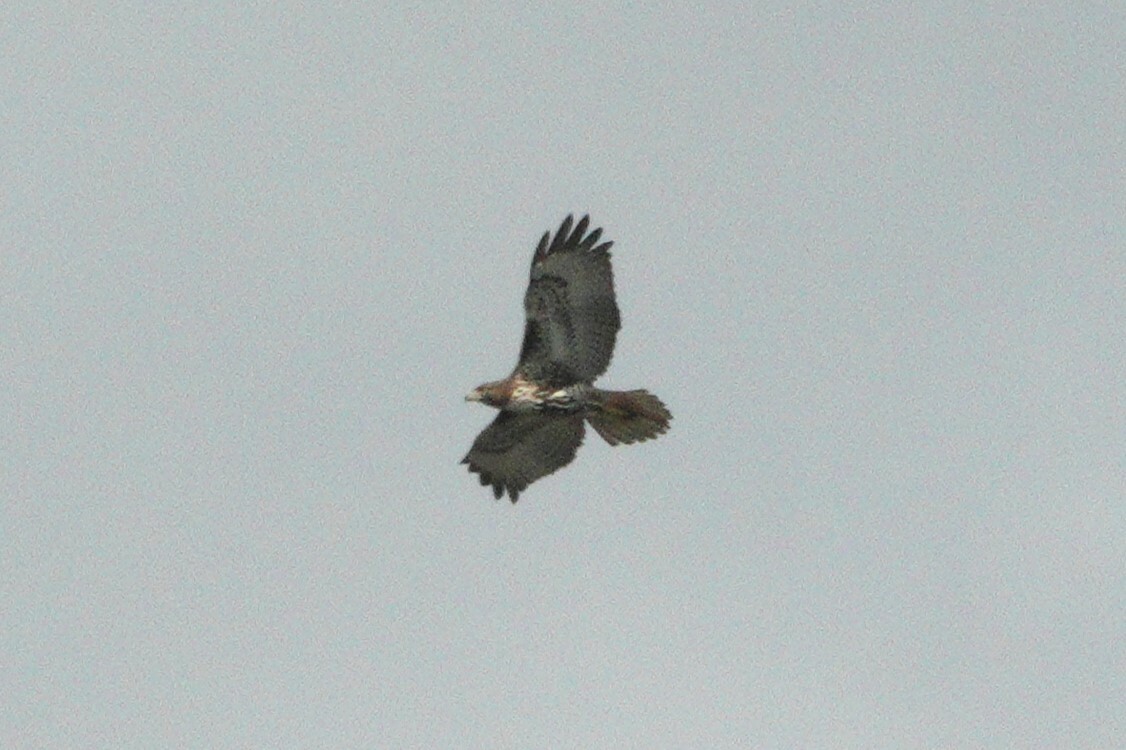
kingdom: Animalia
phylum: Chordata
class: Aves
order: Accipitriformes
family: Accipitridae
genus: Buteo
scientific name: Buteo jamaicensis
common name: Red-tailed hawk
